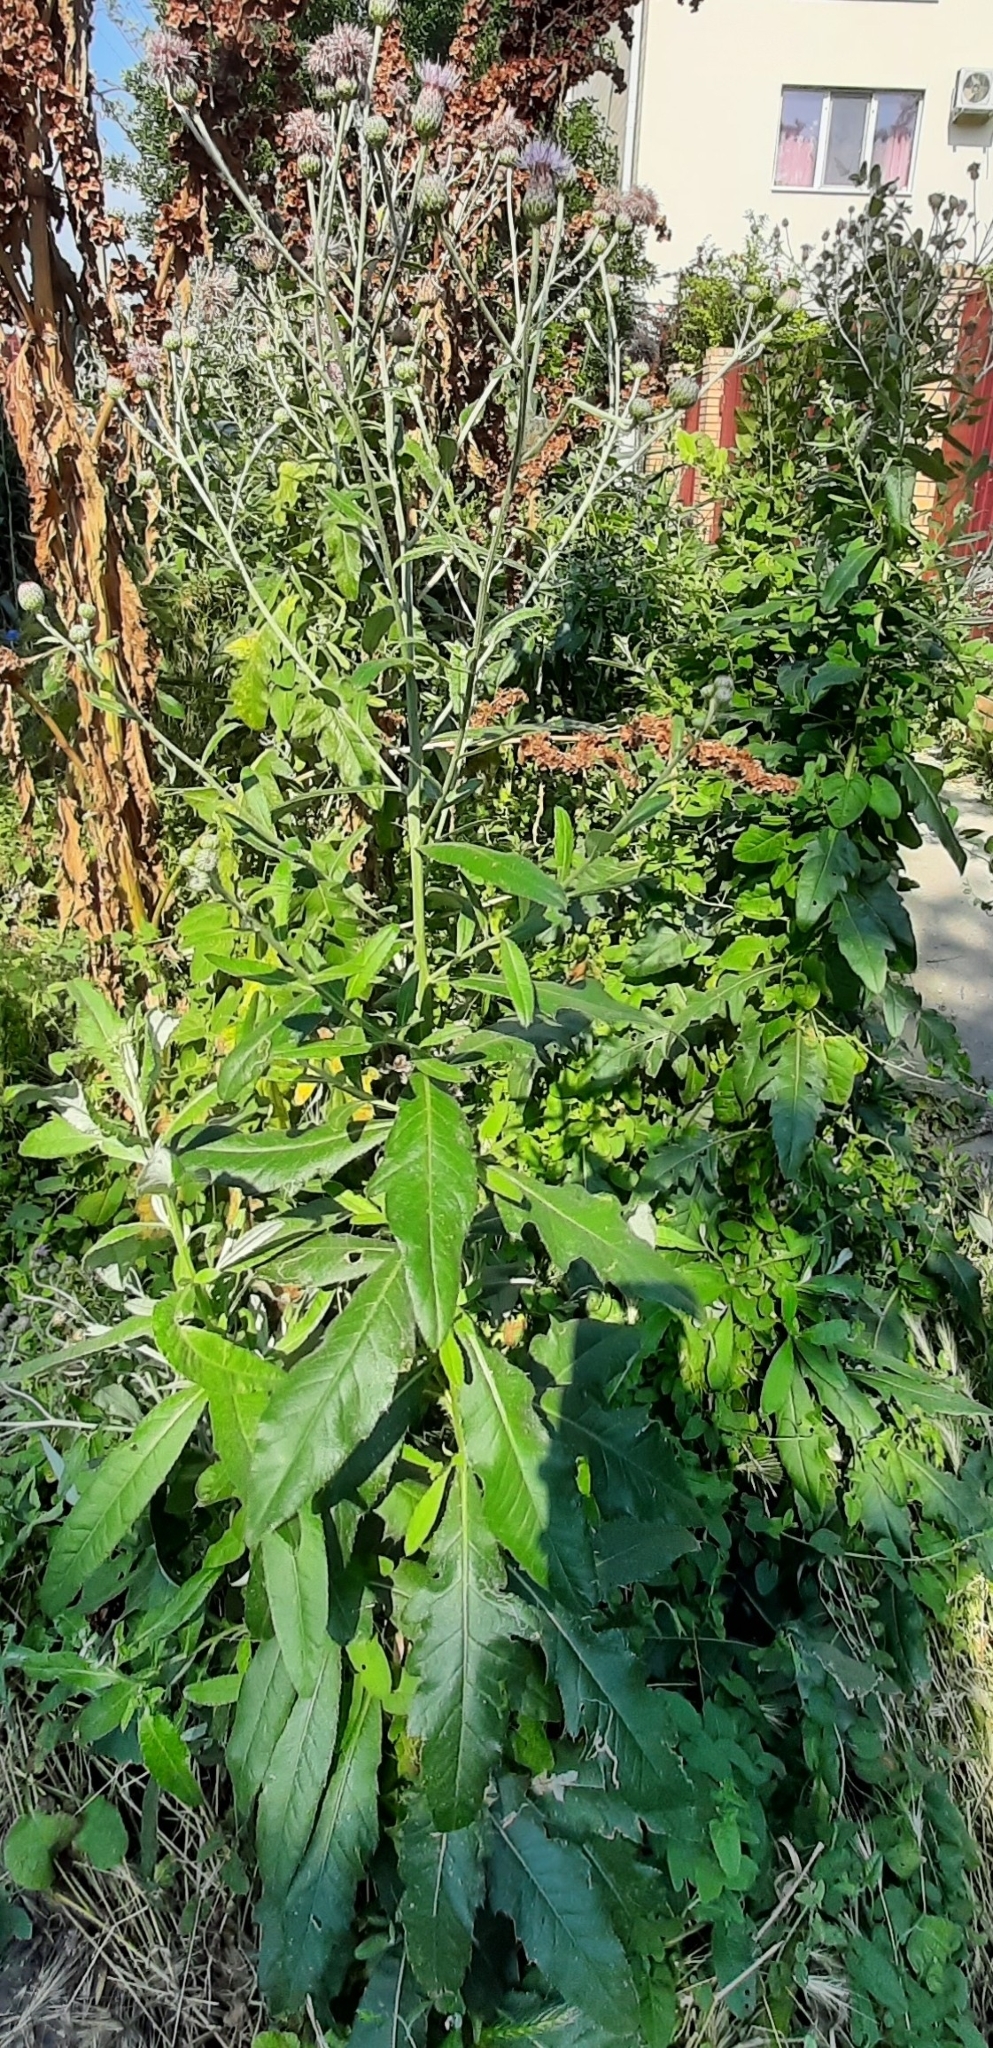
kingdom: Plantae
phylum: Tracheophyta
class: Magnoliopsida
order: Asterales
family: Asteraceae
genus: Cirsium
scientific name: Cirsium arvense
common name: Creeping thistle
